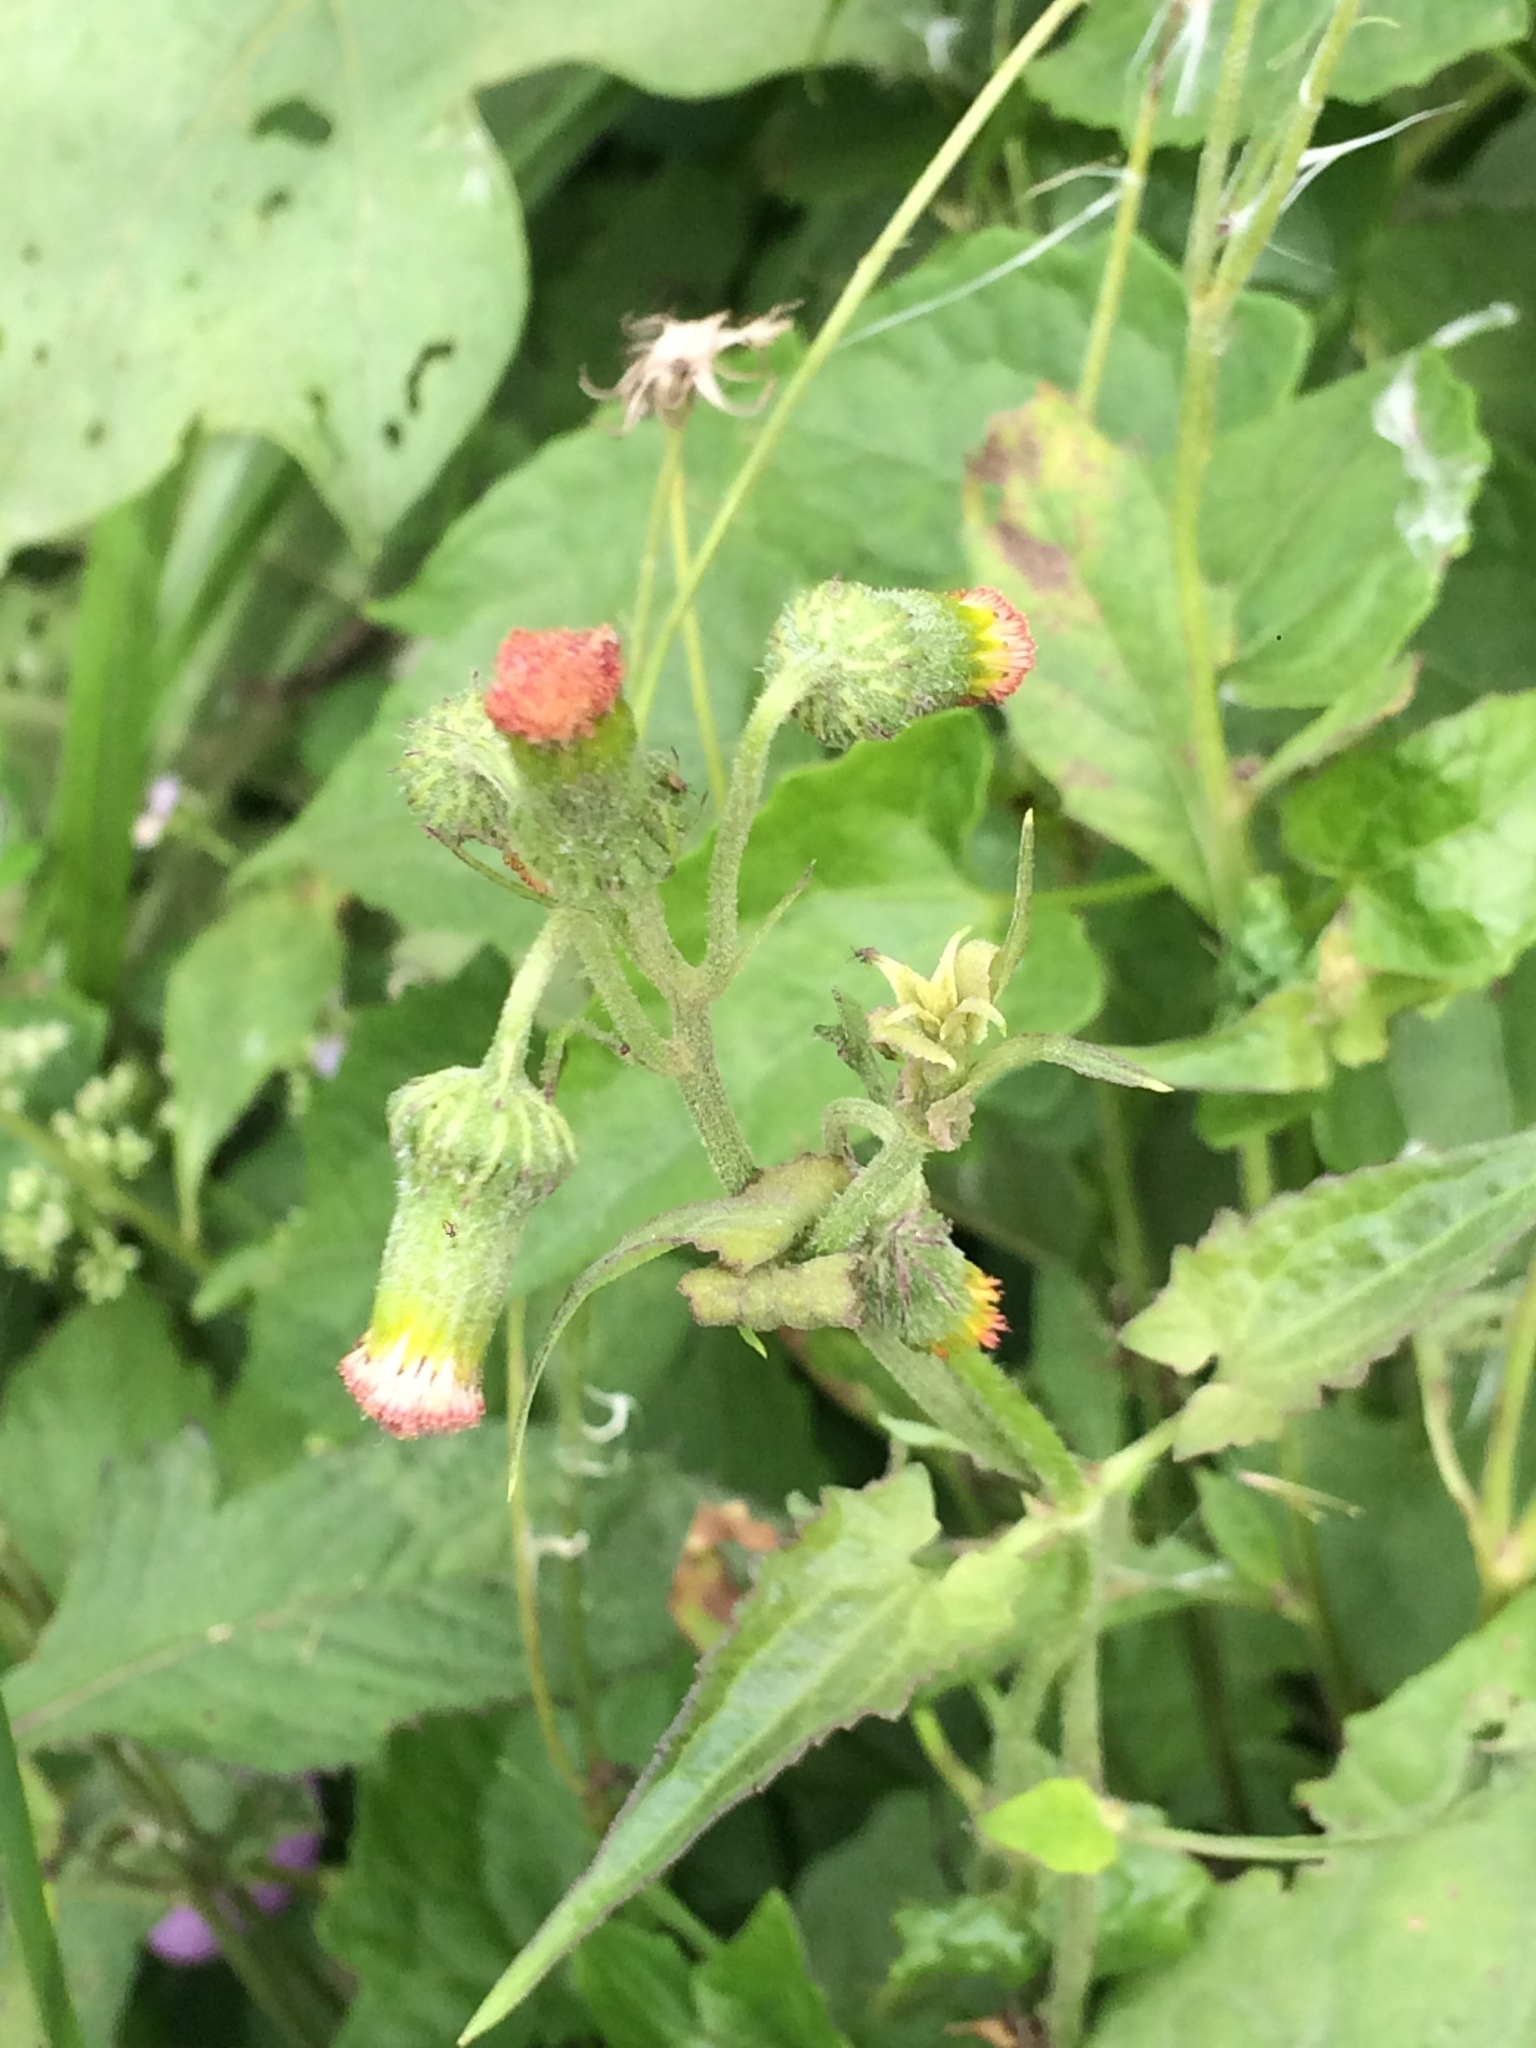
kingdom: Plantae
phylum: Tracheophyta
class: Magnoliopsida
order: Asterales
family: Asteraceae
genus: Crassocephalum
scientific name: Crassocephalum crepidioides
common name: Redflower ragleaf
